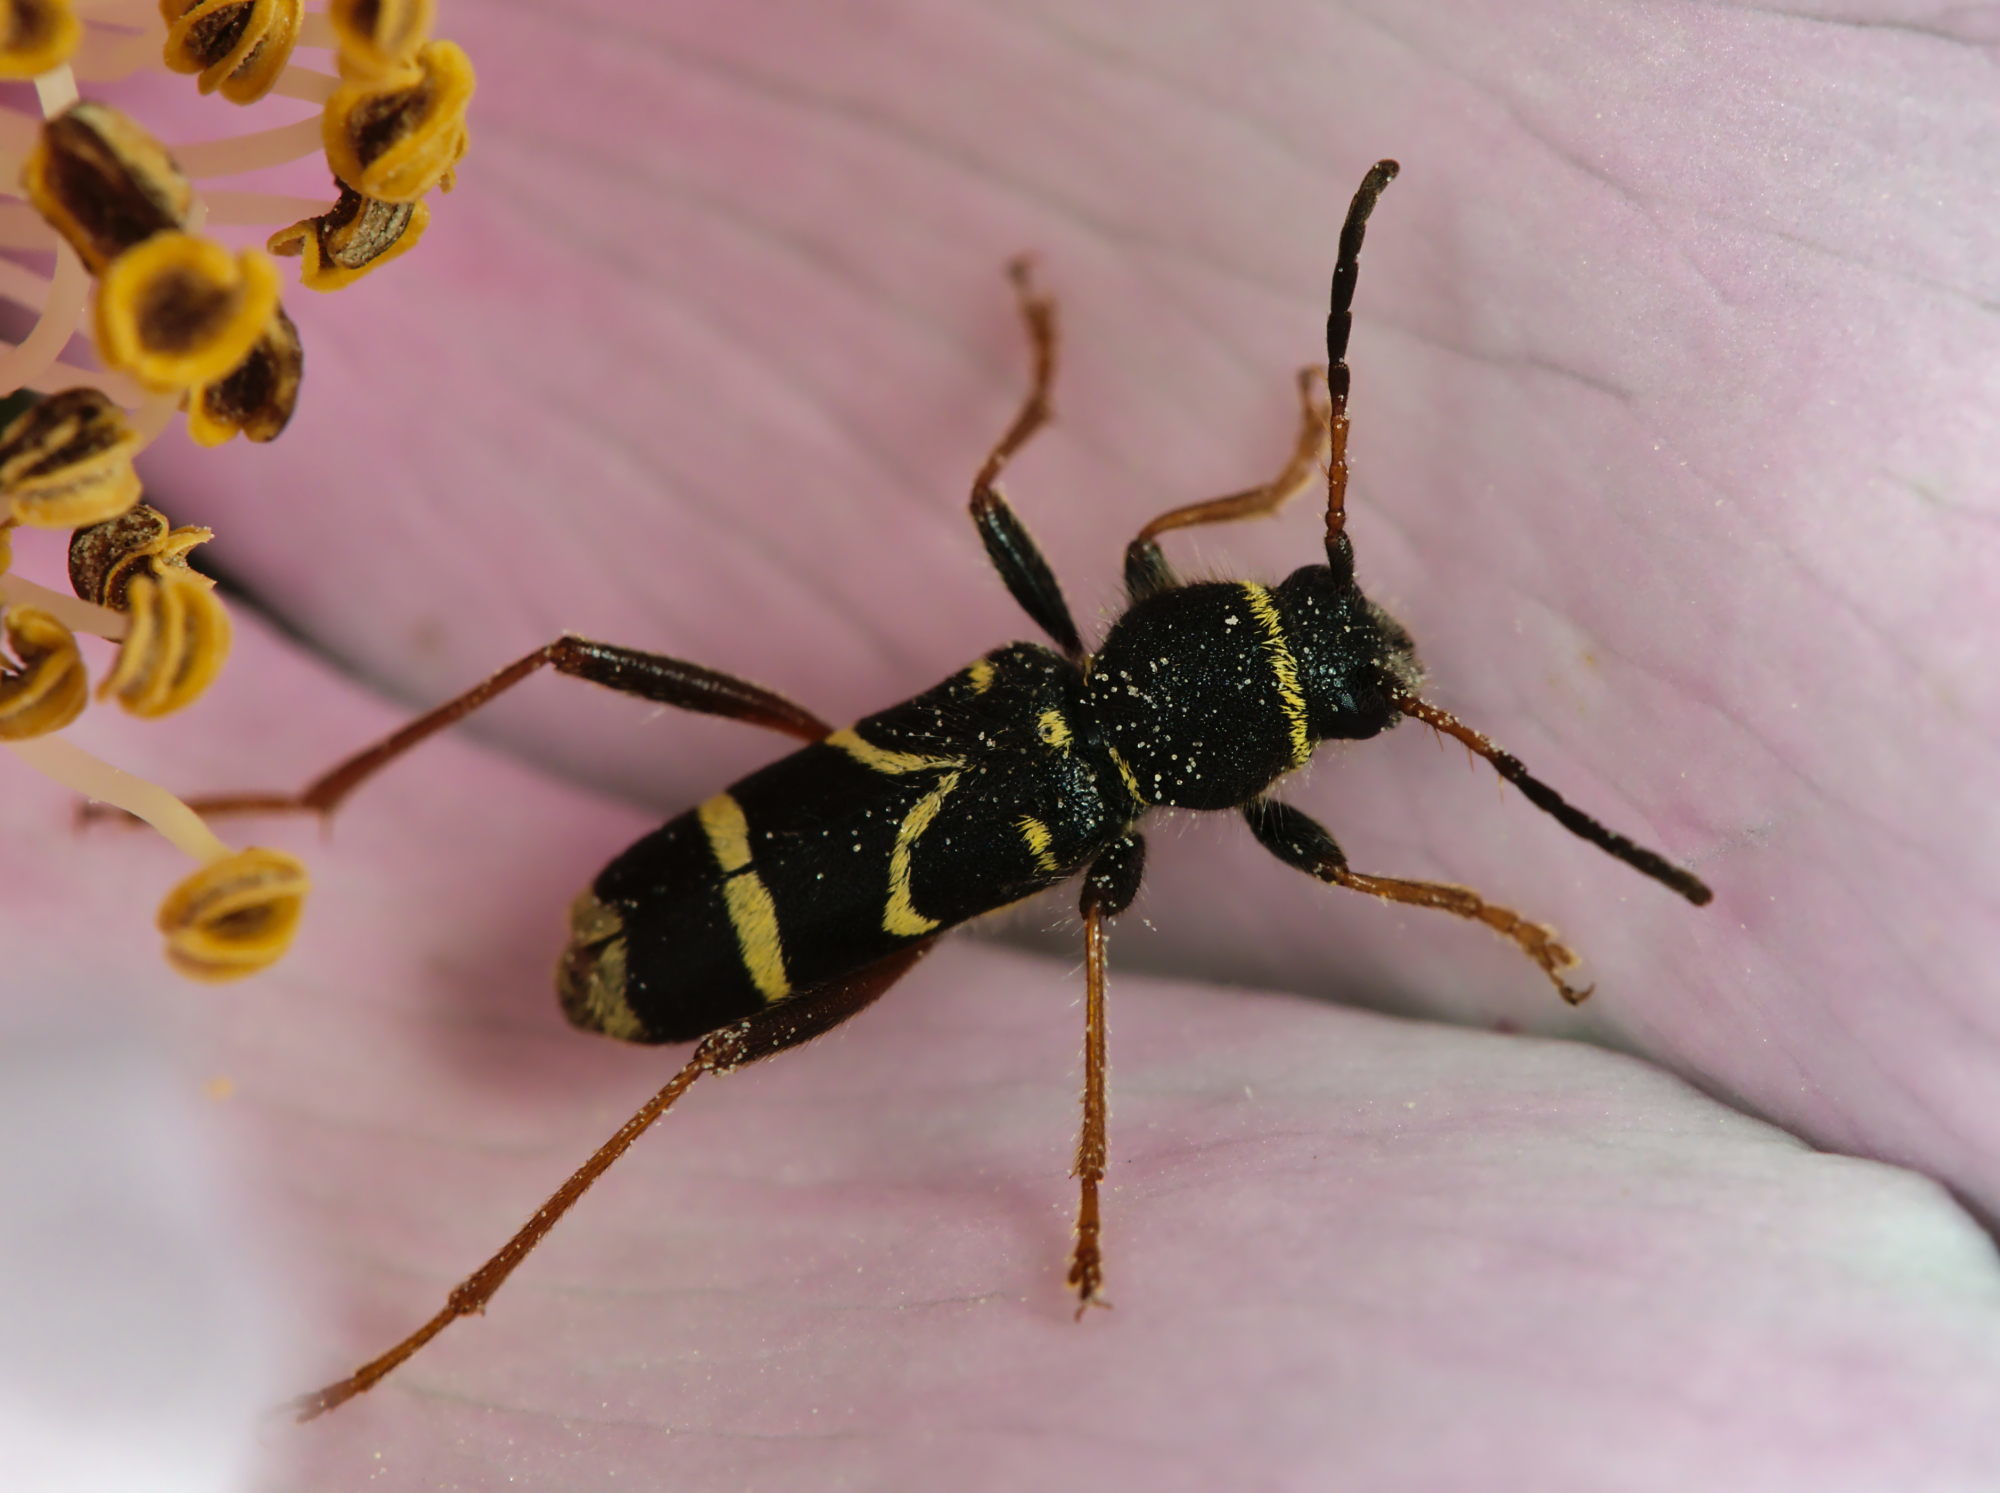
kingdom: Animalia
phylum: Arthropoda
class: Insecta
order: Coleoptera
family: Cerambycidae
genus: Clytus
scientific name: Clytus arietis
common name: Wasp beetle
